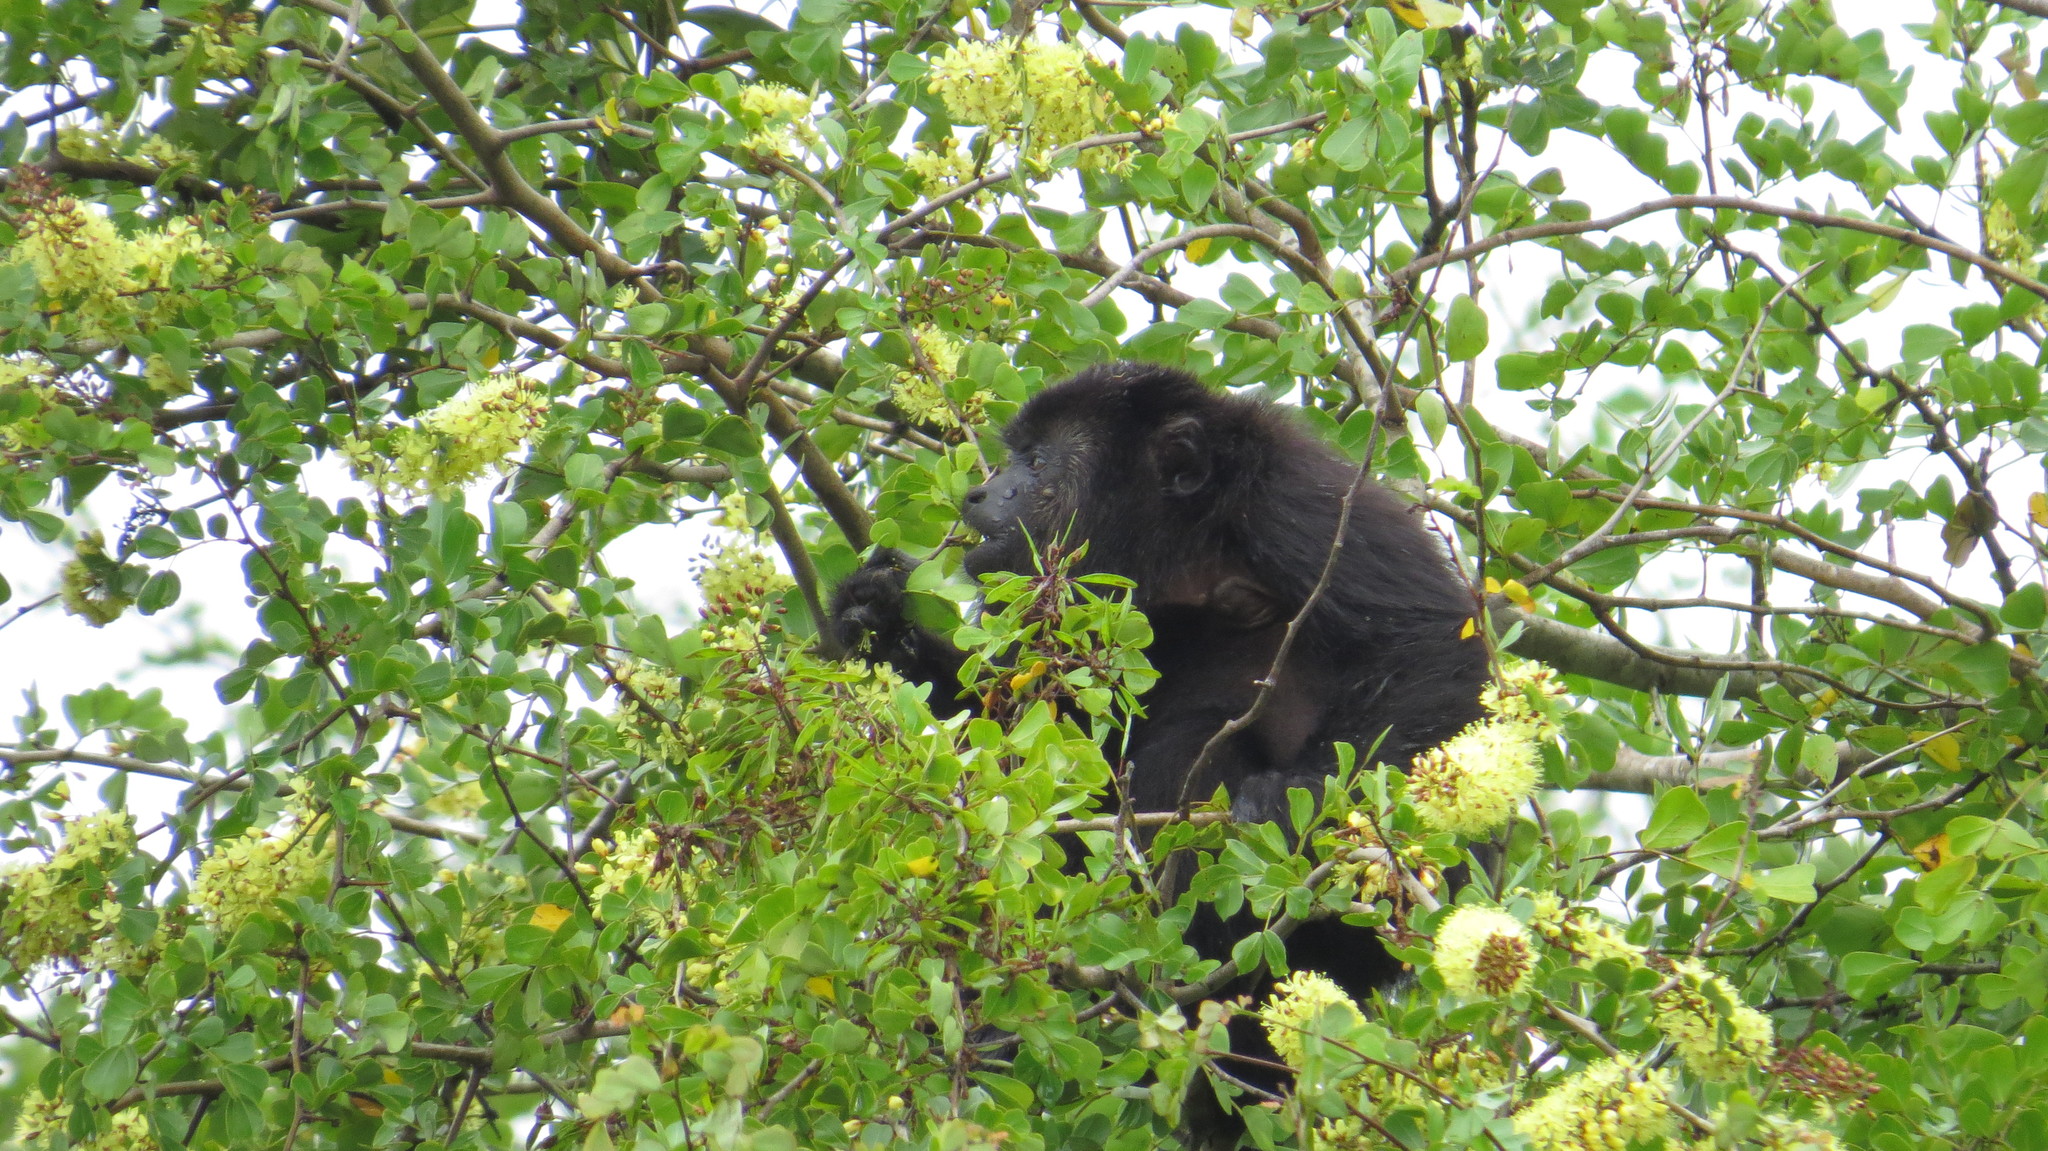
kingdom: Animalia
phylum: Chordata
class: Mammalia
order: Primates
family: Atelidae
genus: Alouatta
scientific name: Alouatta pigra
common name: Guatemalan black howler
